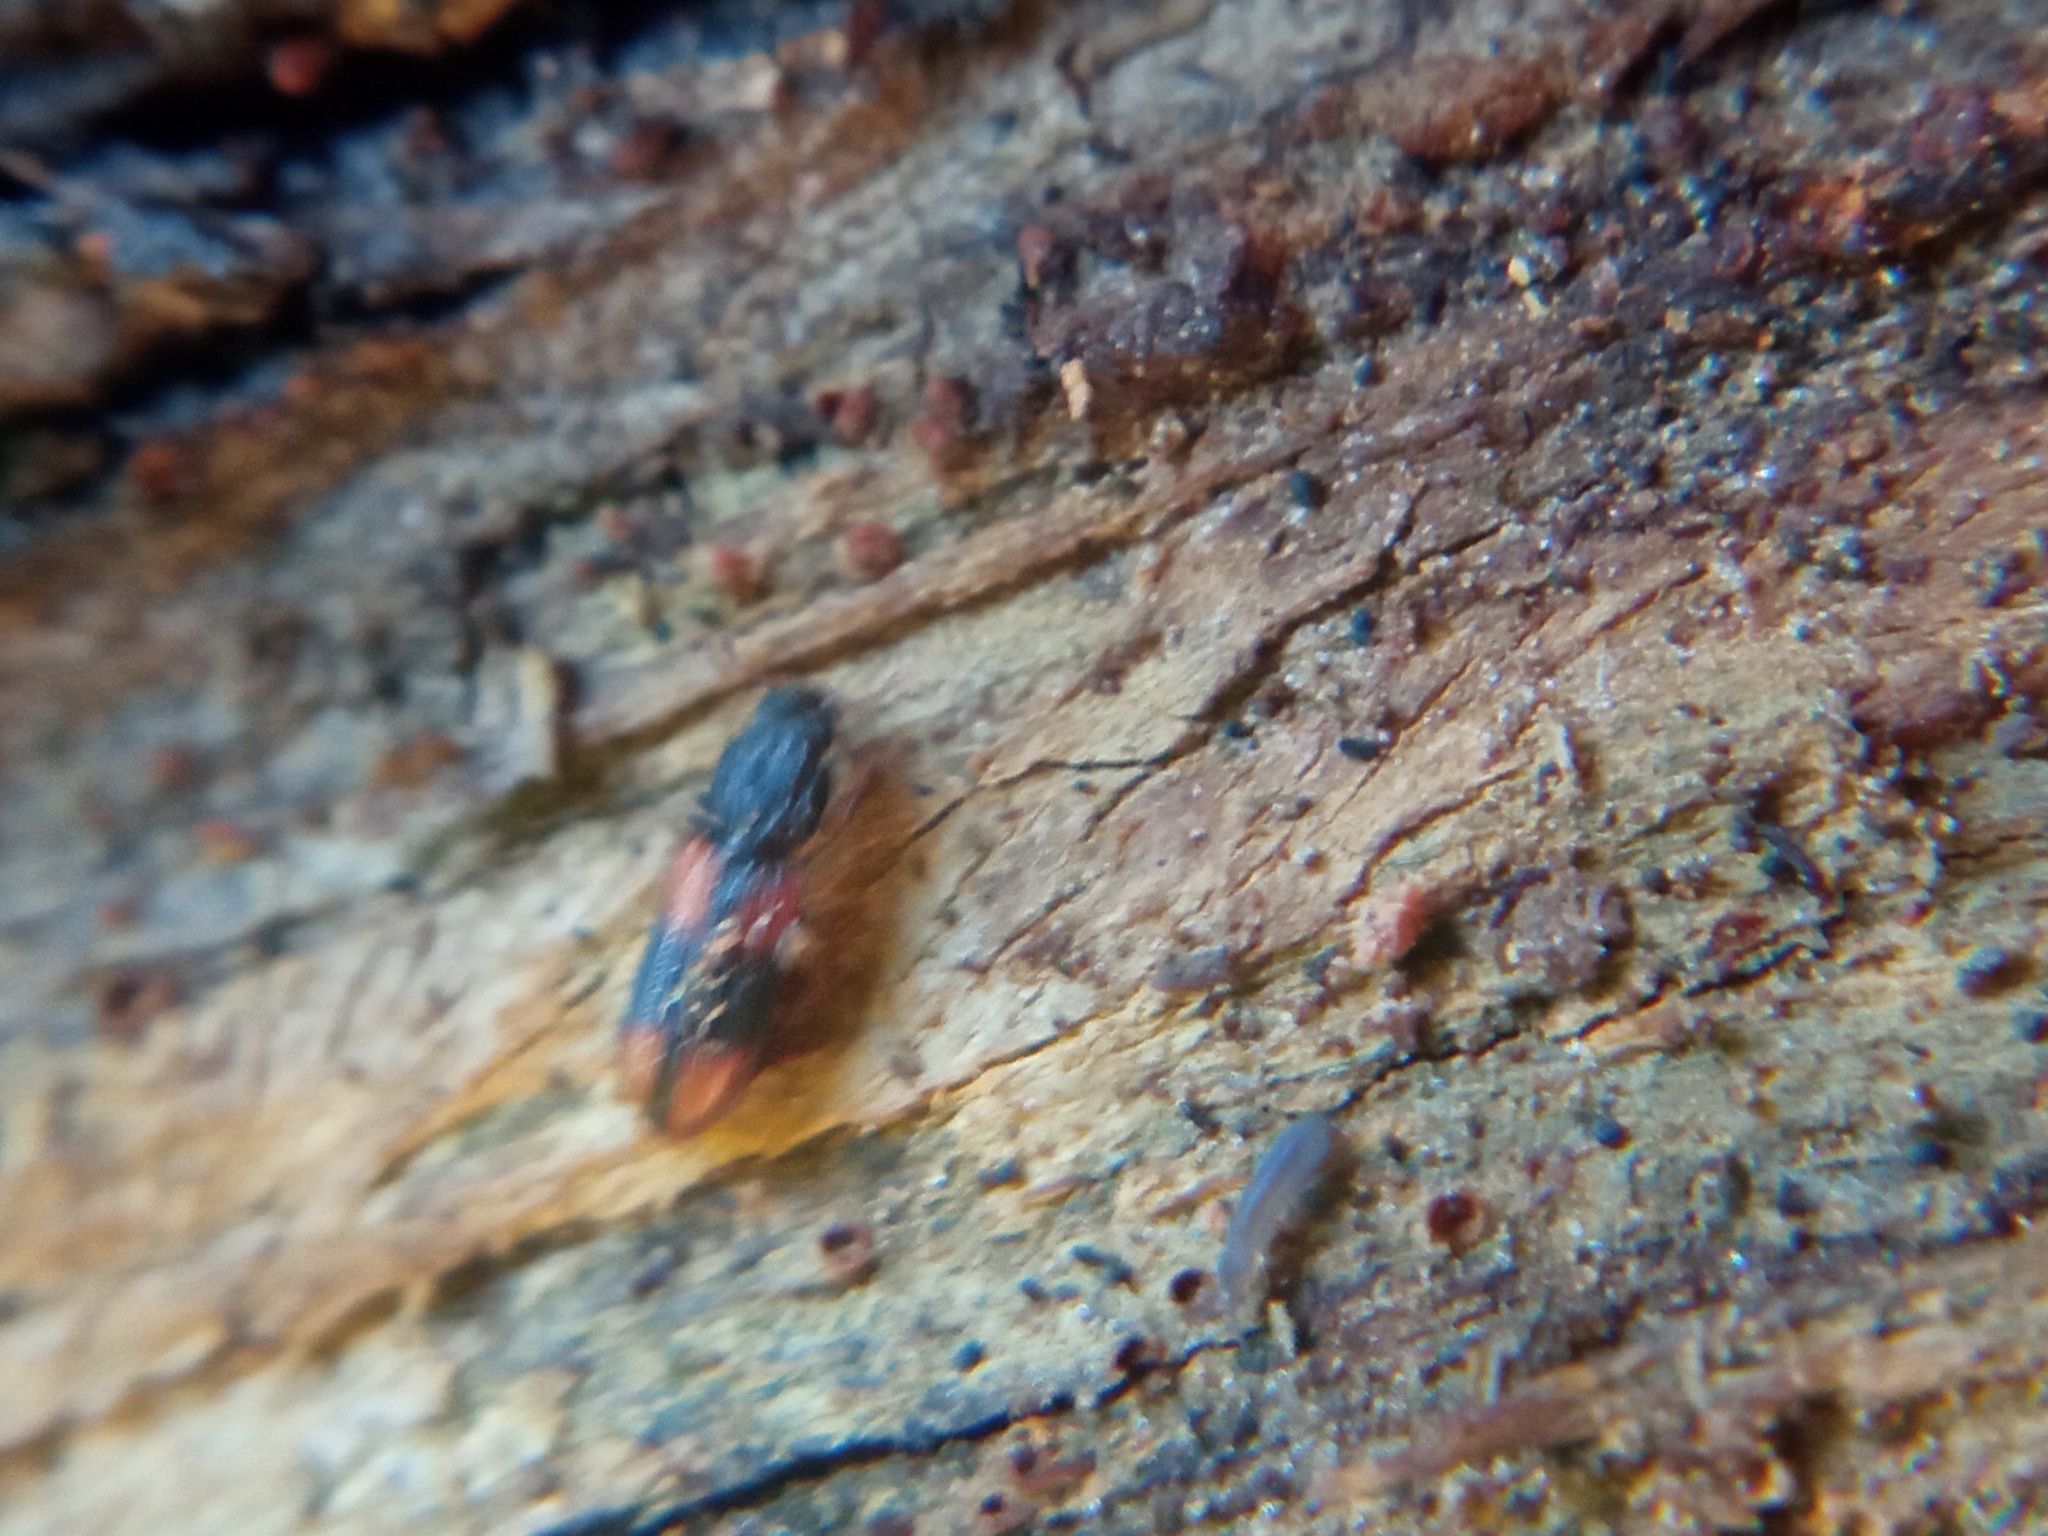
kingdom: Animalia
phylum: Arthropoda
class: Insecta
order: Coleoptera
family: Zopheridae
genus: Bitoma
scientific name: Bitoma crenata
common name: Bark beetle
